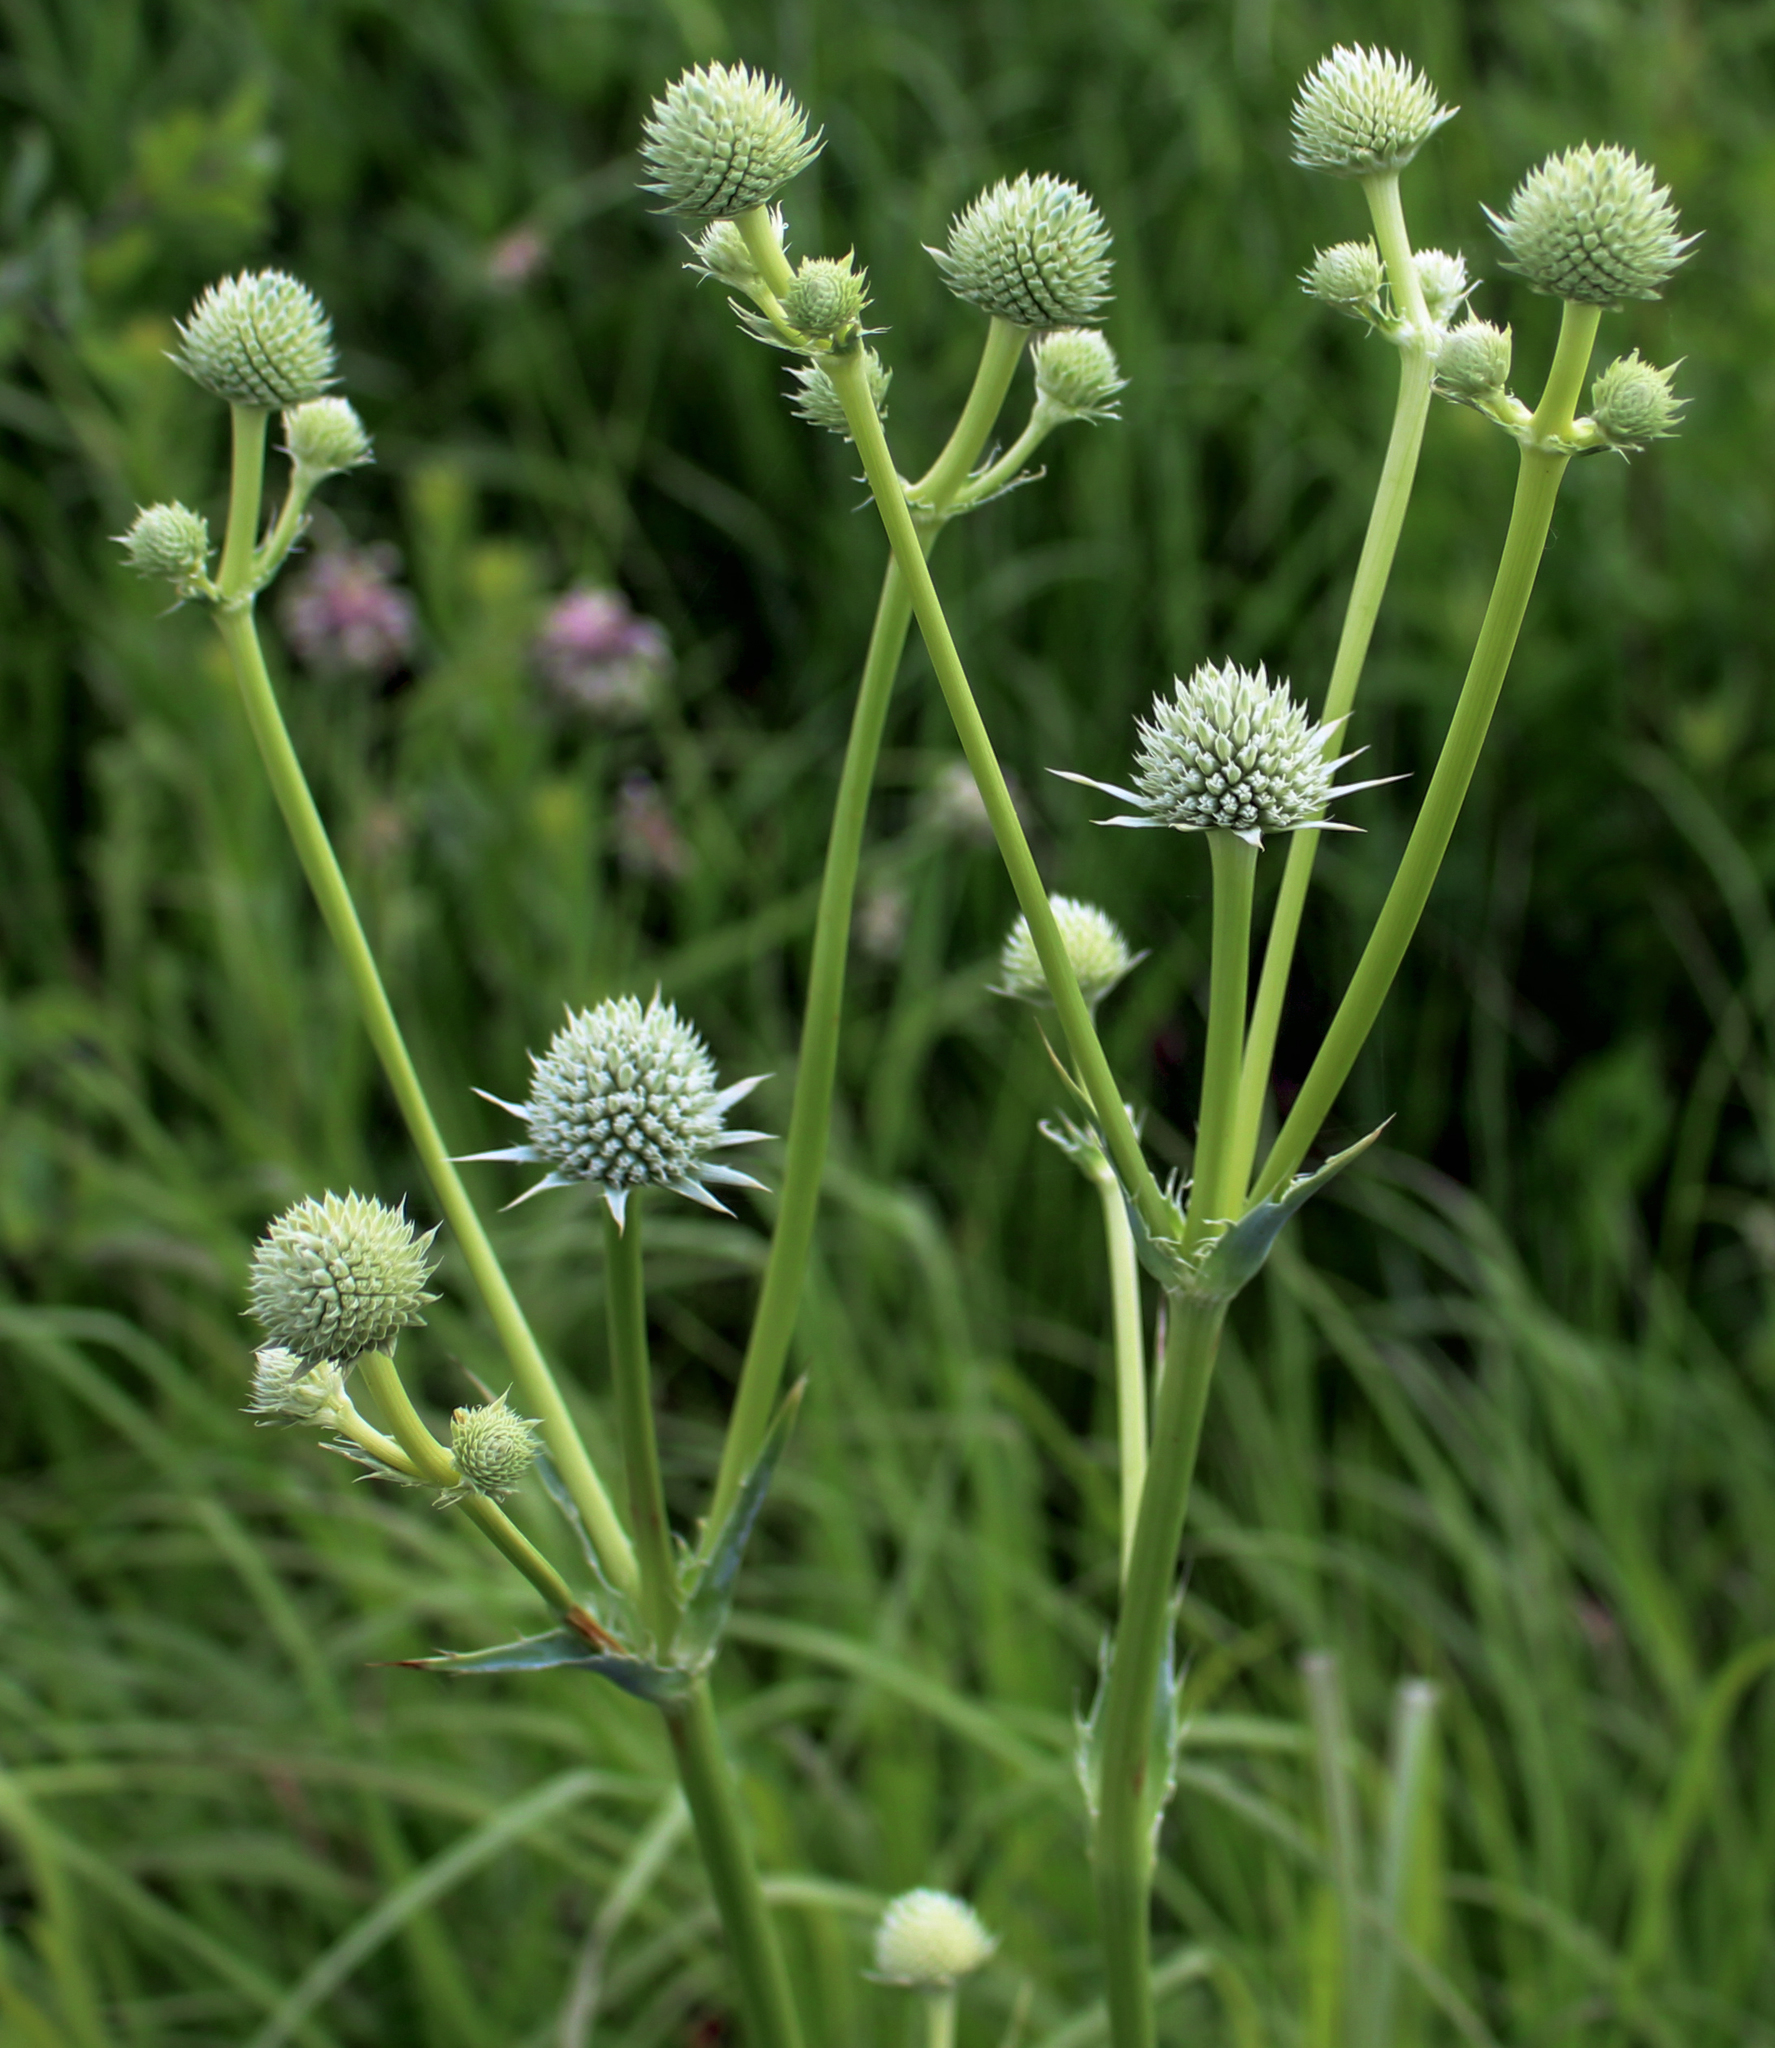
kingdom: Plantae
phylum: Tracheophyta
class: Magnoliopsida
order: Apiales
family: Apiaceae
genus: Eryngium
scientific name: Eryngium yuccifolium
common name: Button eryngo
